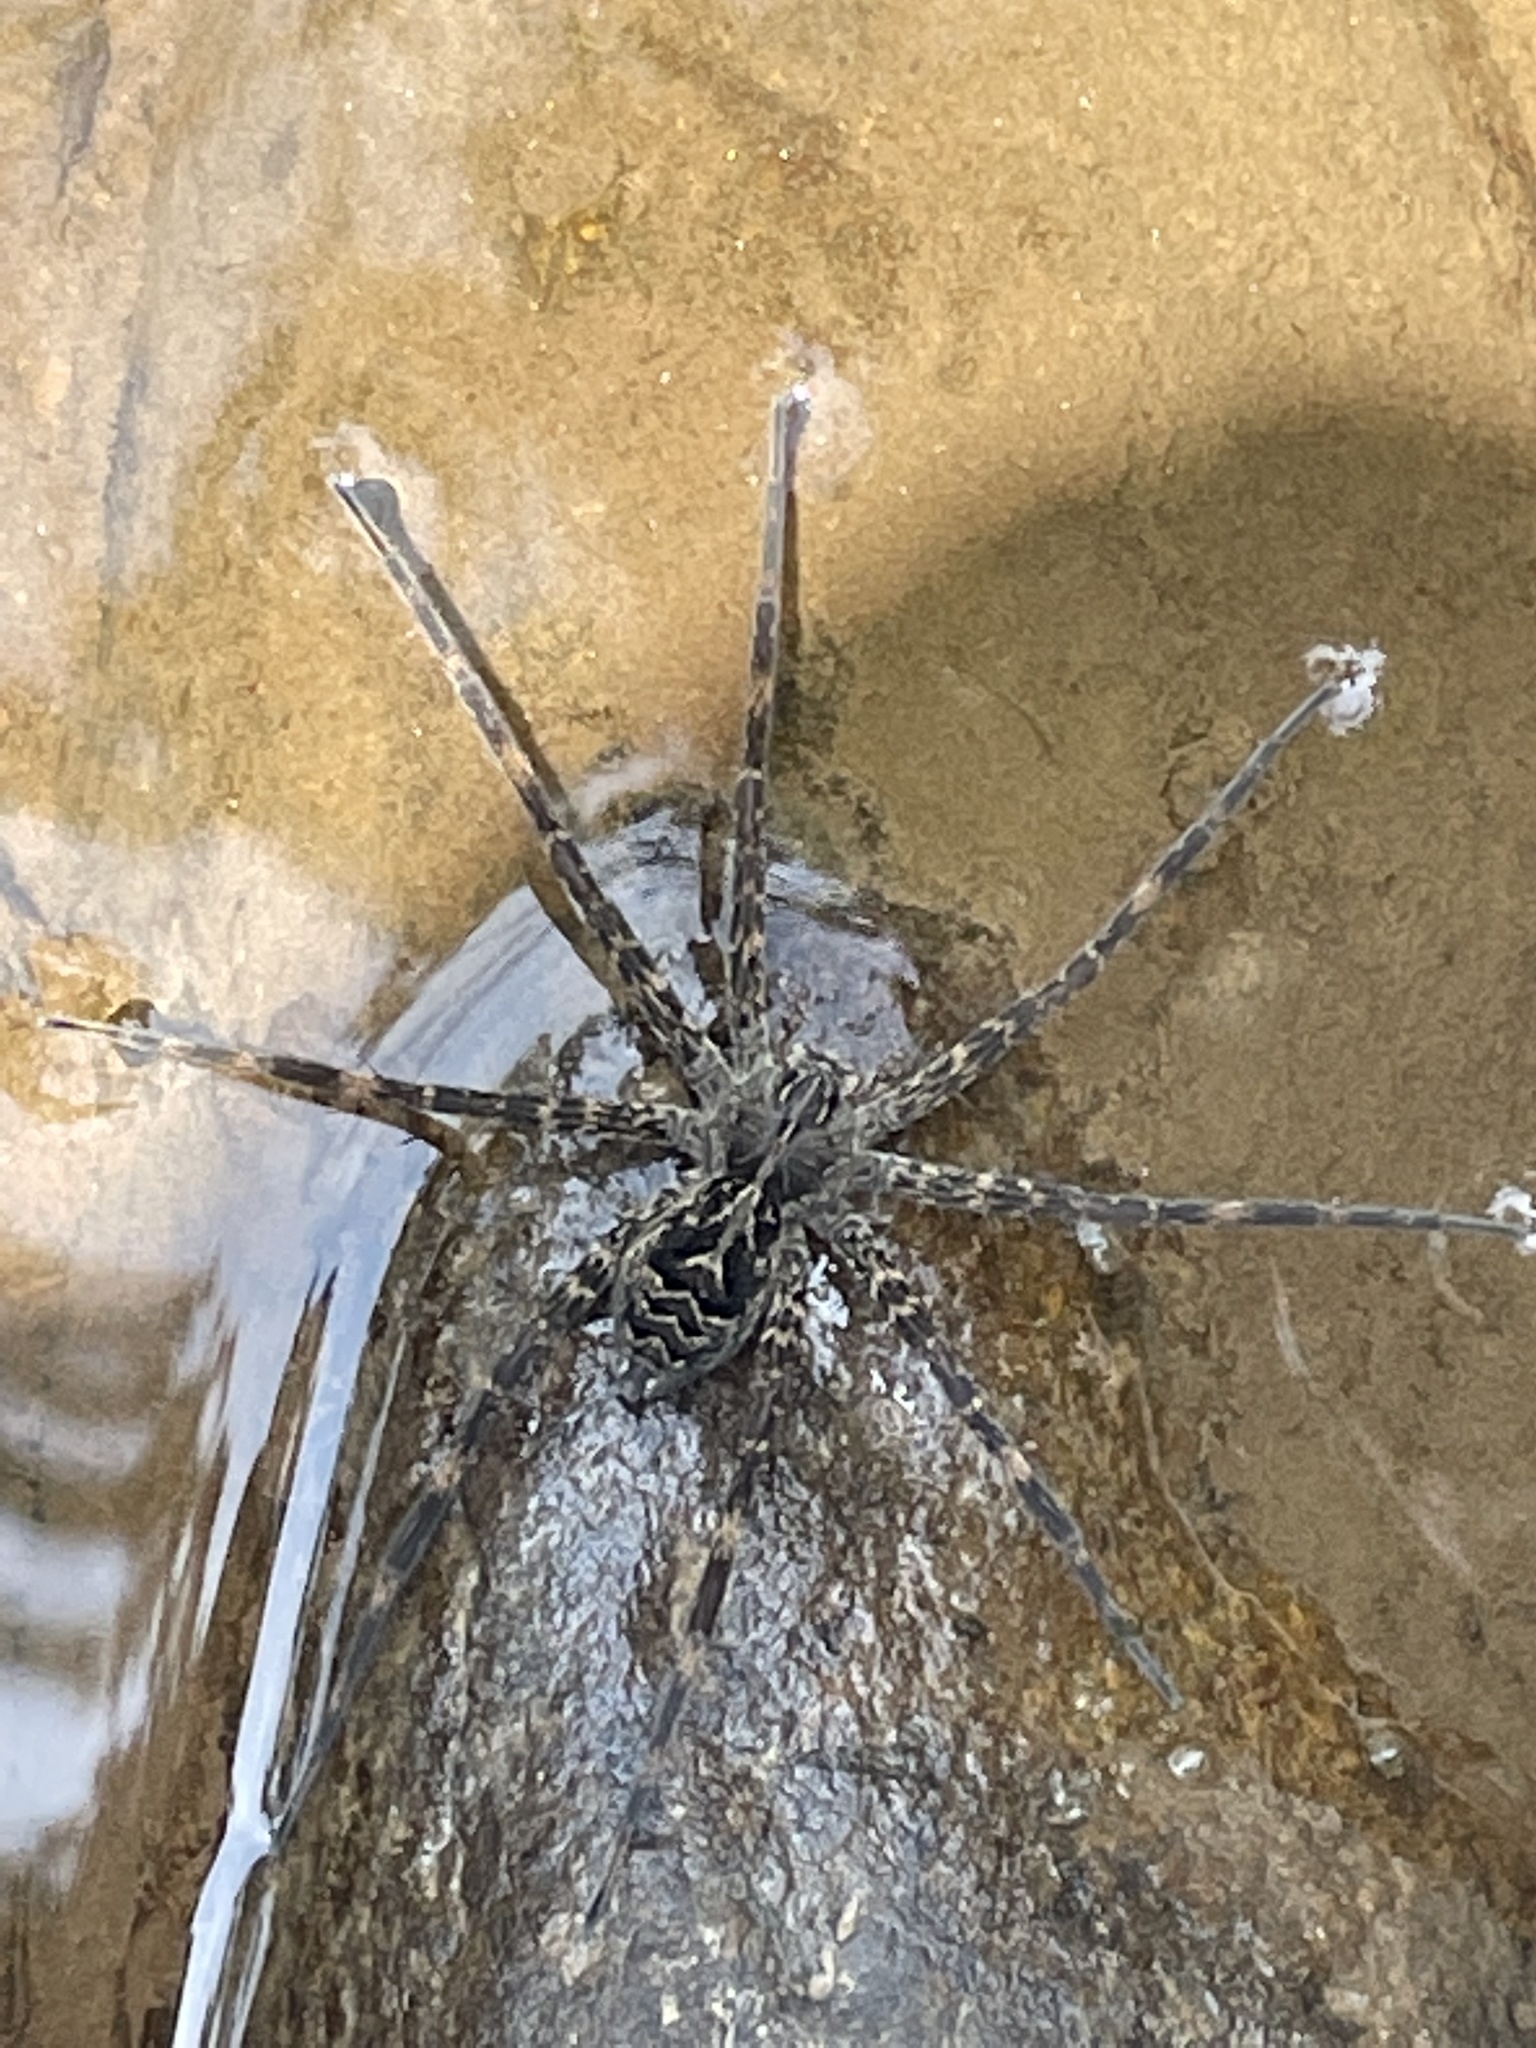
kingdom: Animalia
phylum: Arthropoda
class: Arachnida
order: Araneae
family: Pisauridae
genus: Dolomedes
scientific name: Dolomedes scriptus
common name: Striped fishing spider
